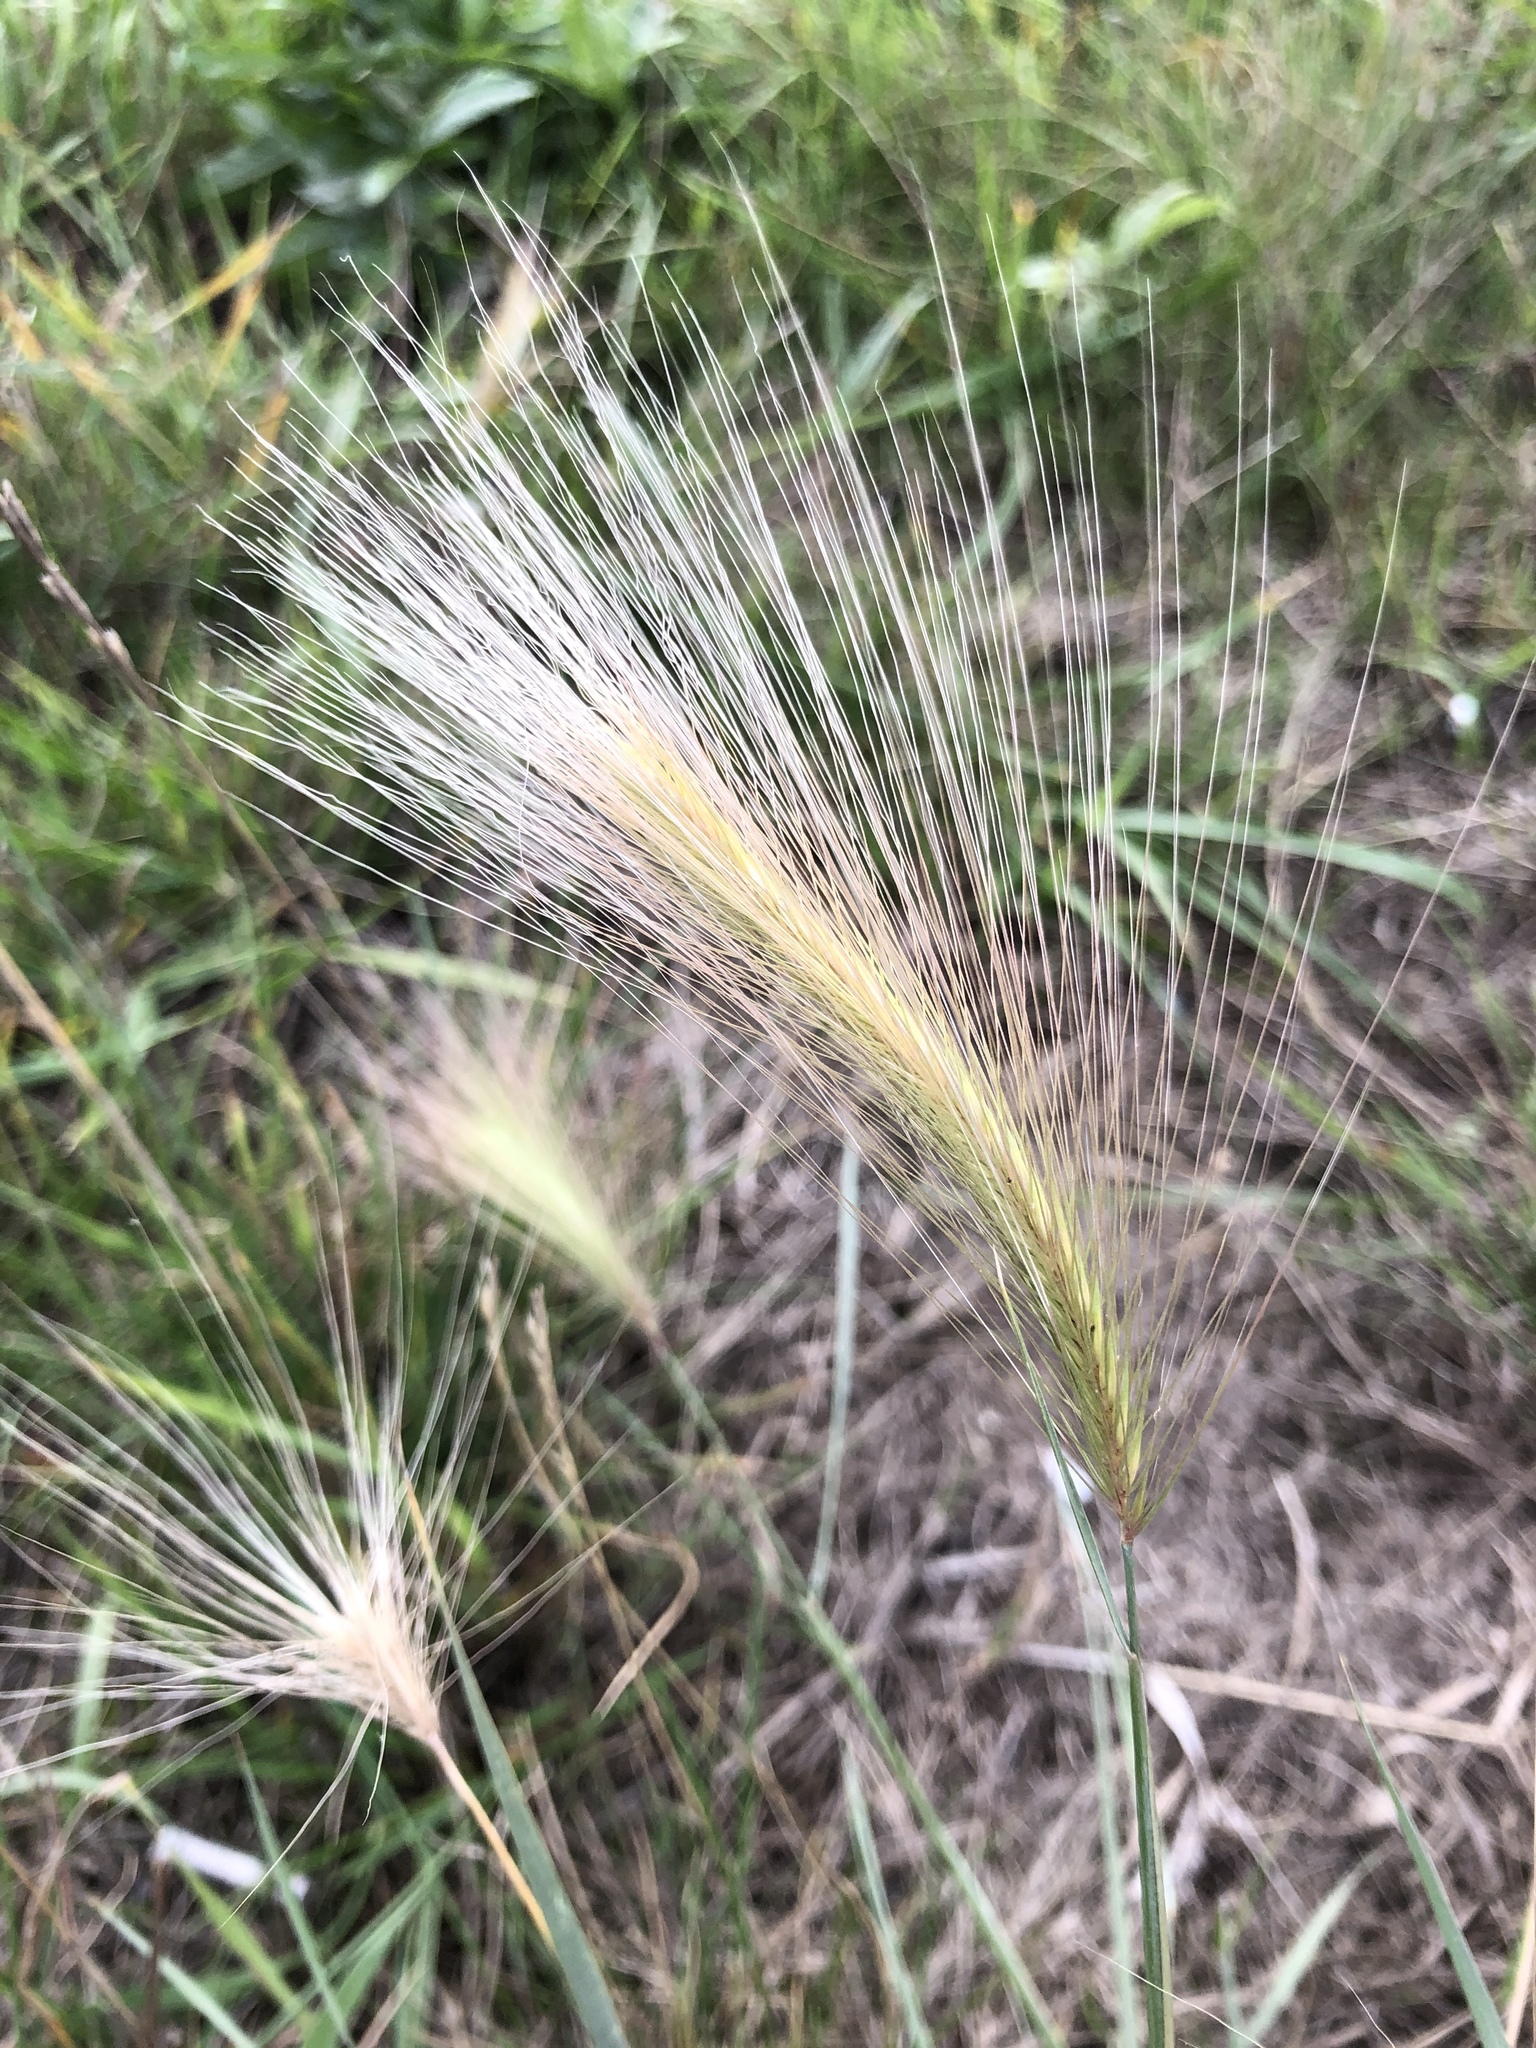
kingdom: Plantae
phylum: Tracheophyta
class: Liliopsida
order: Poales
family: Poaceae
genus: Hordeum
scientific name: Hordeum jubatum
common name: Foxtail barley
